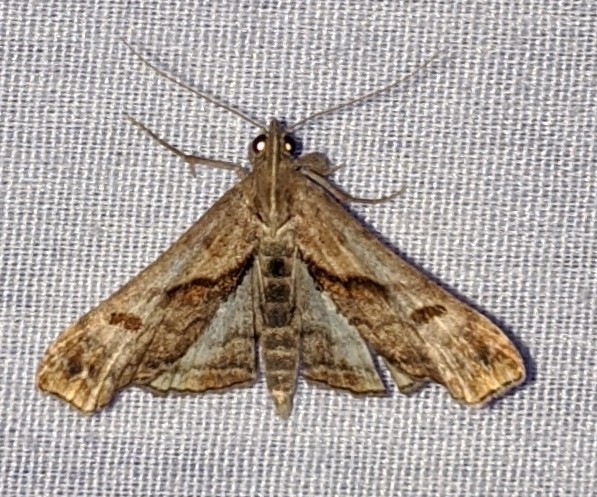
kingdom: Animalia
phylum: Arthropoda
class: Insecta
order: Lepidoptera
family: Erebidae
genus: Palthis
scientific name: Palthis angulalis
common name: Dark-spotted palthis moth
